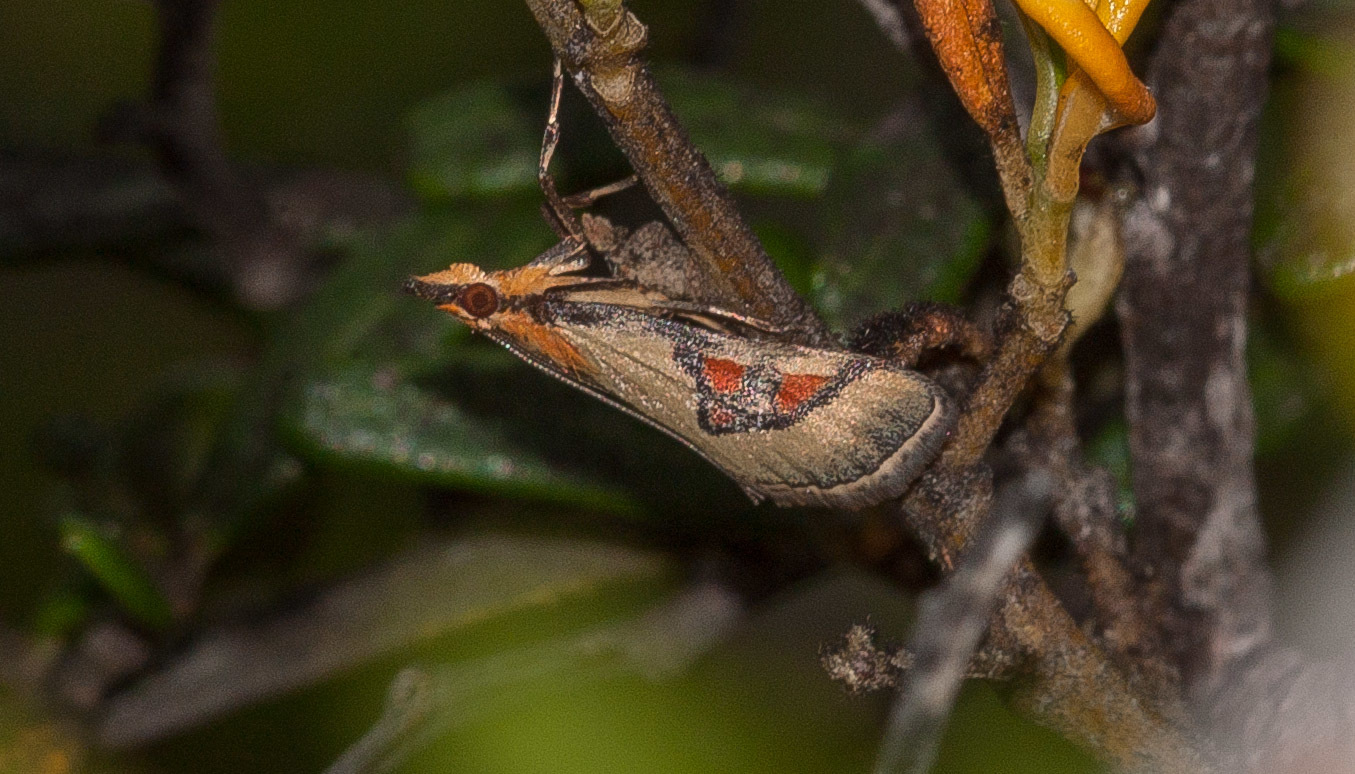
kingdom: Animalia
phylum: Arthropoda
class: Insecta
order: Lepidoptera
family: Crambidae
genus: Metallarcha
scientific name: Metallarcha calliaspis
